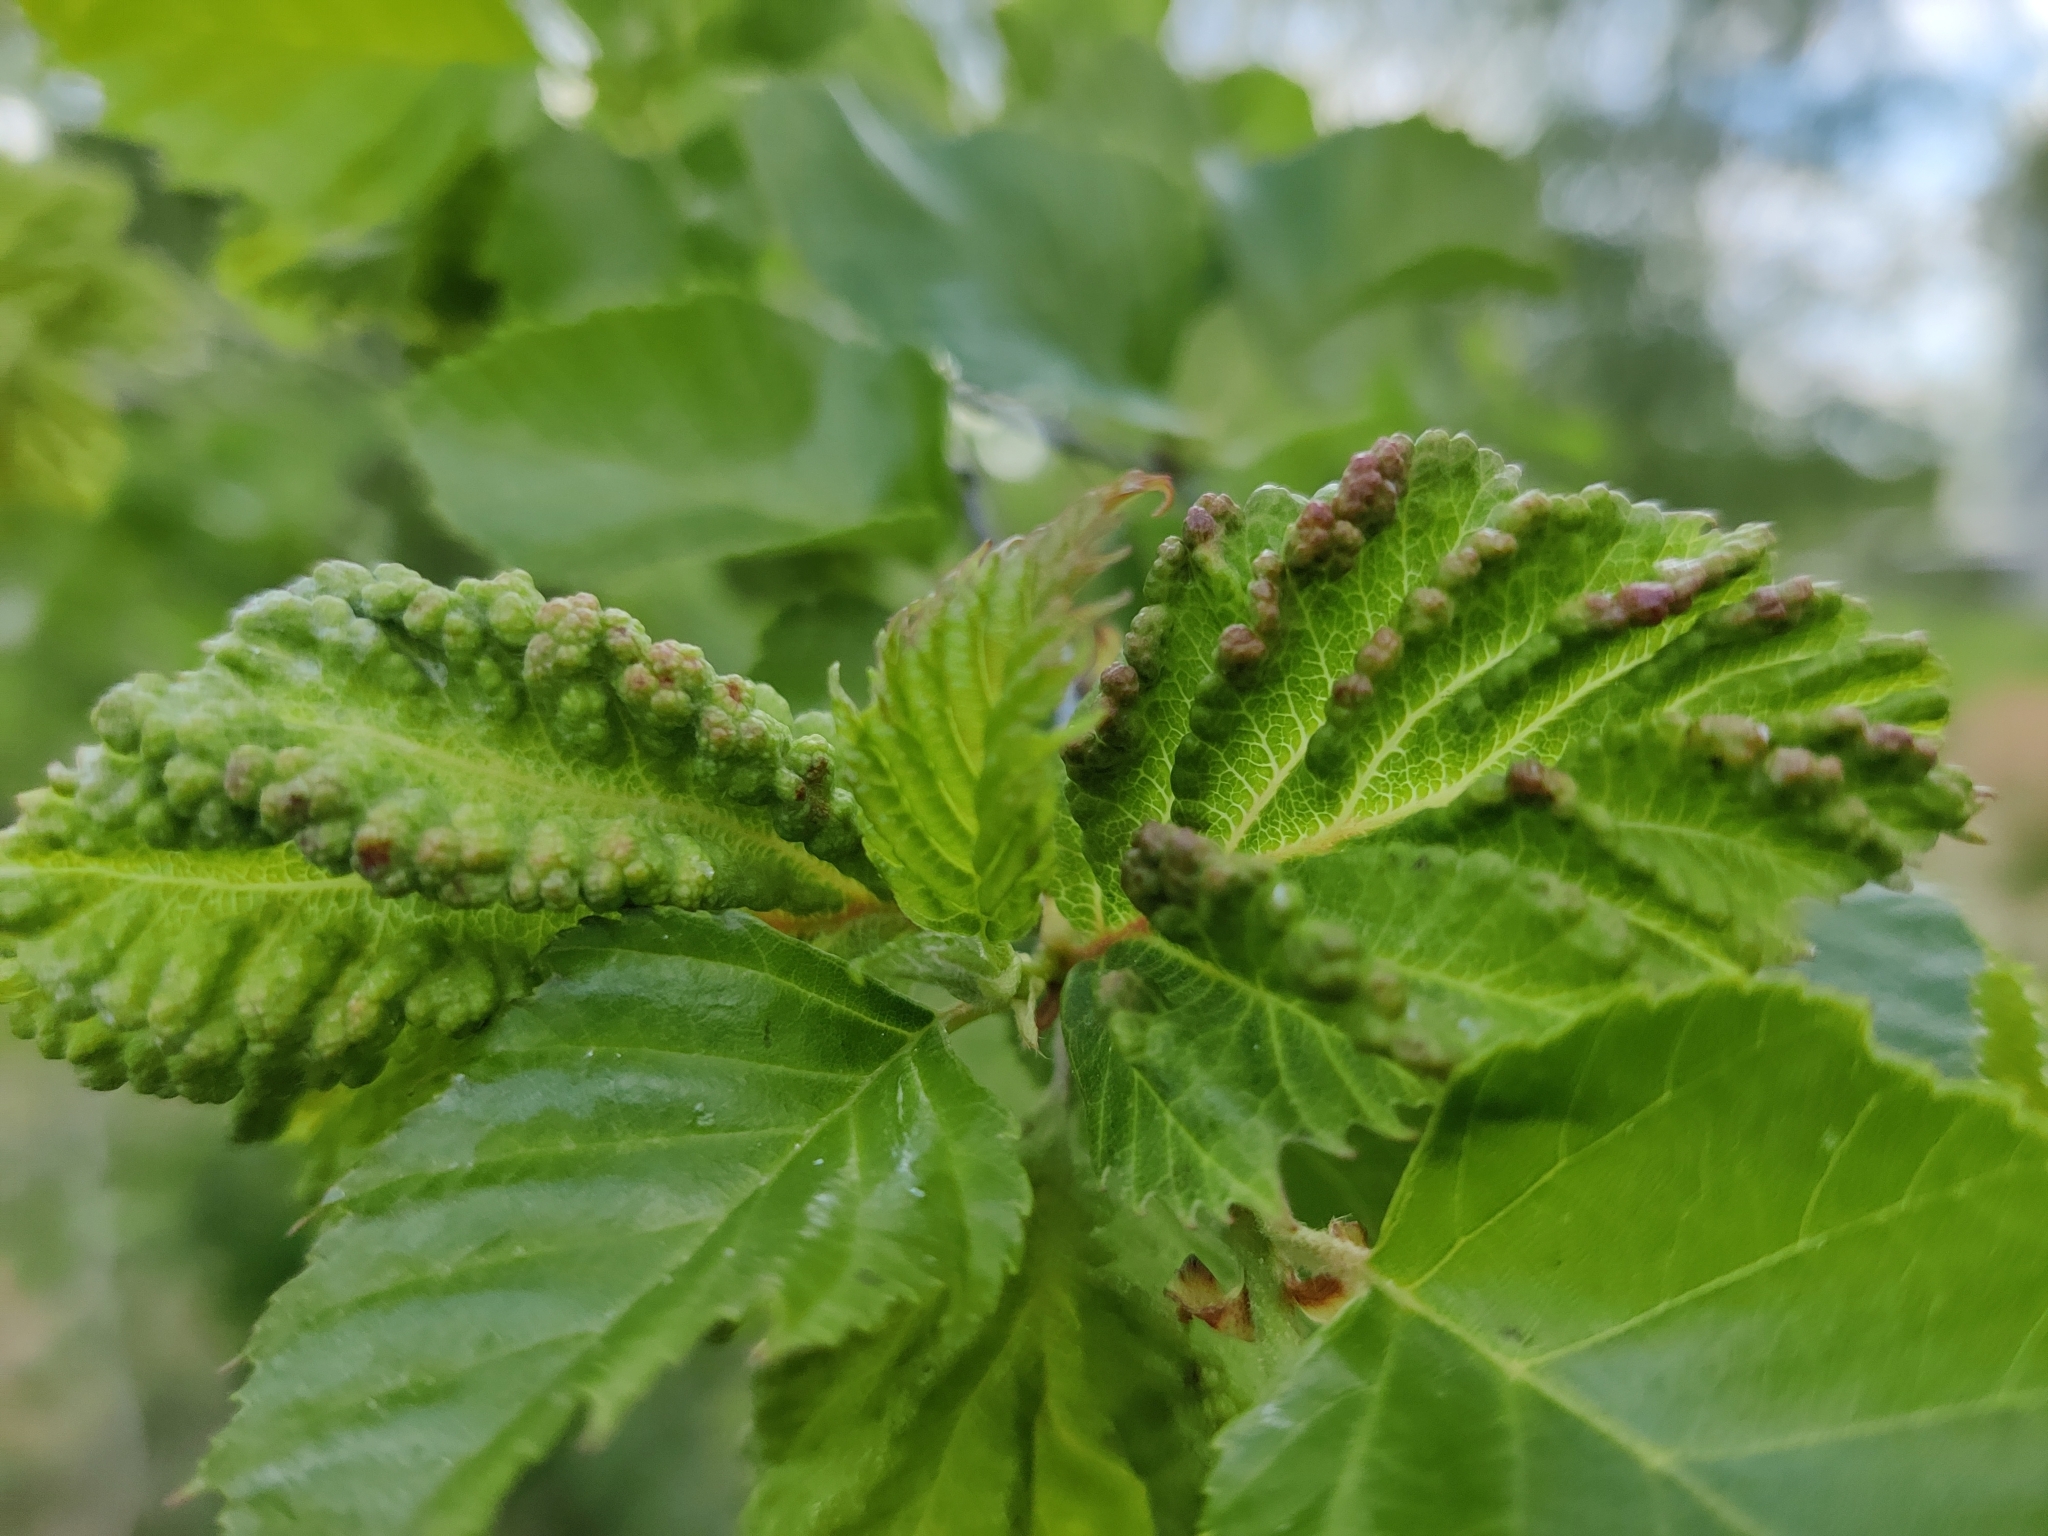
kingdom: Animalia
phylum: Arthropoda
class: Insecta
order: Hemiptera
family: Aphididae
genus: Hamamelistes
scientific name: Hamamelistes spinosus
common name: Witch hazel gall aphid
